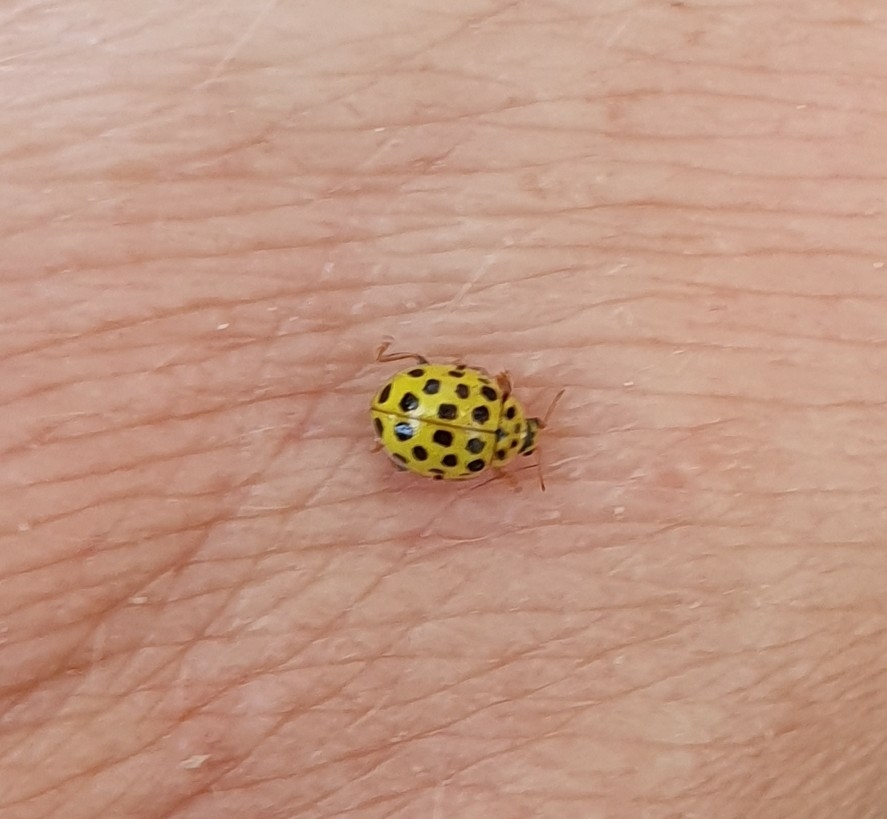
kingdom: Animalia
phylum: Arthropoda
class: Insecta
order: Coleoptera
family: Coccinellidae
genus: Psyllobora
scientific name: Psyllobora vigintiduopunctata
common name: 22-spot ladybird
